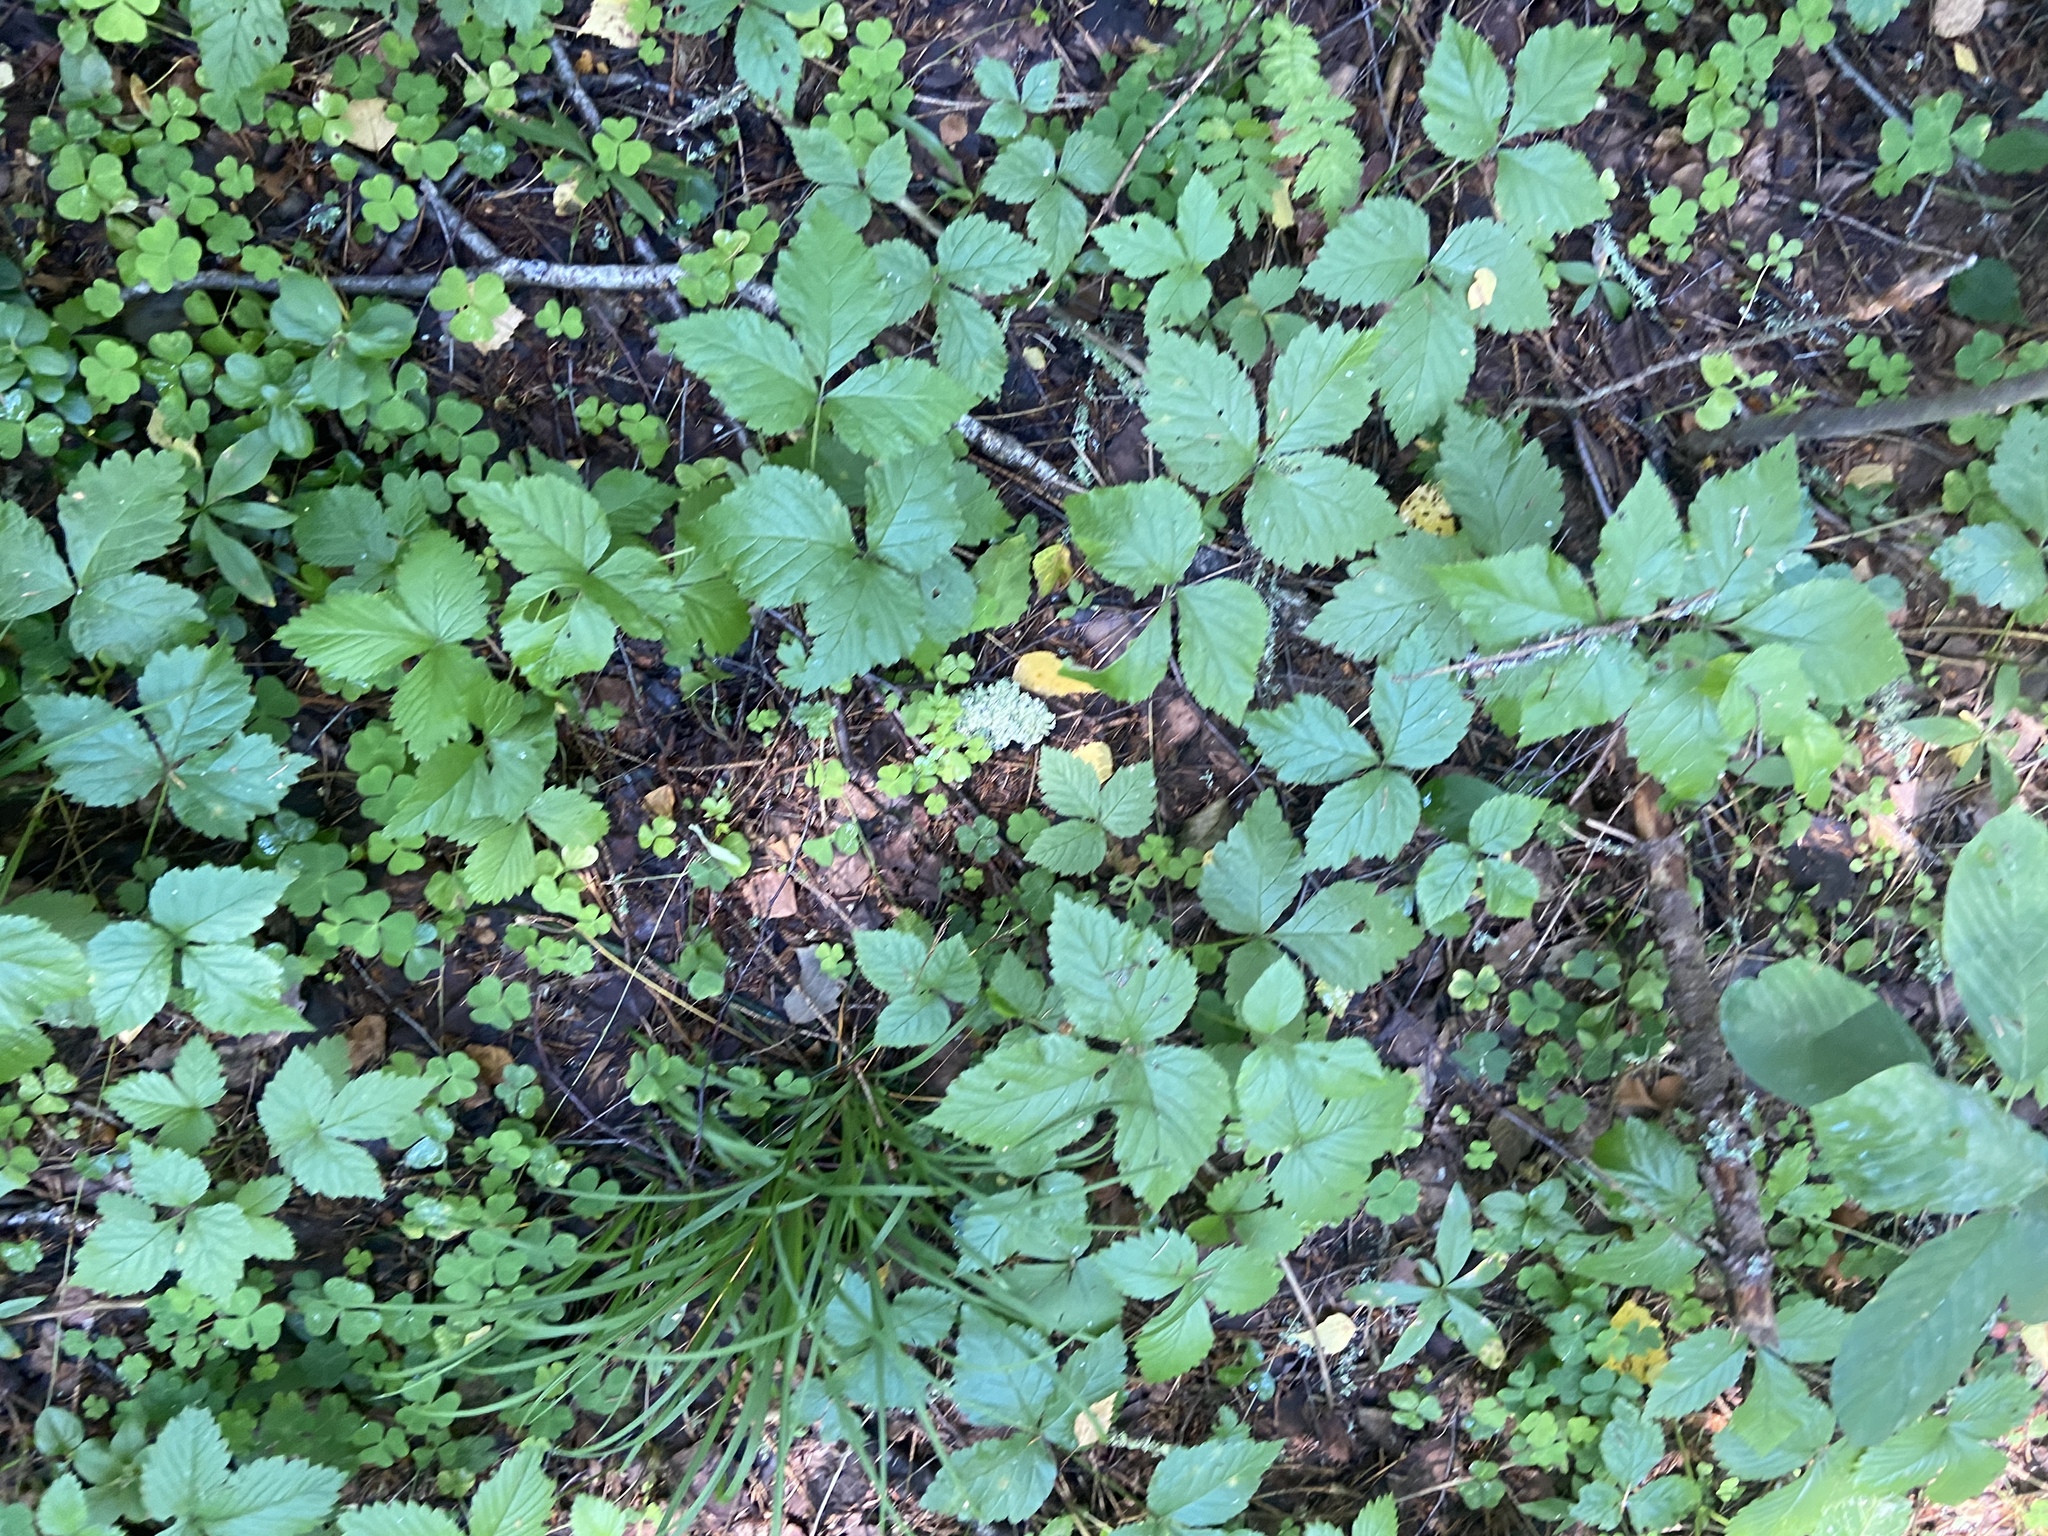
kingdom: Plantae
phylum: Tracheophyta
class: Magnoliopsida
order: Rosales
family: Rosaceae
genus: Rubus
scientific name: Rubus saxatilis
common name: Stone bramble
